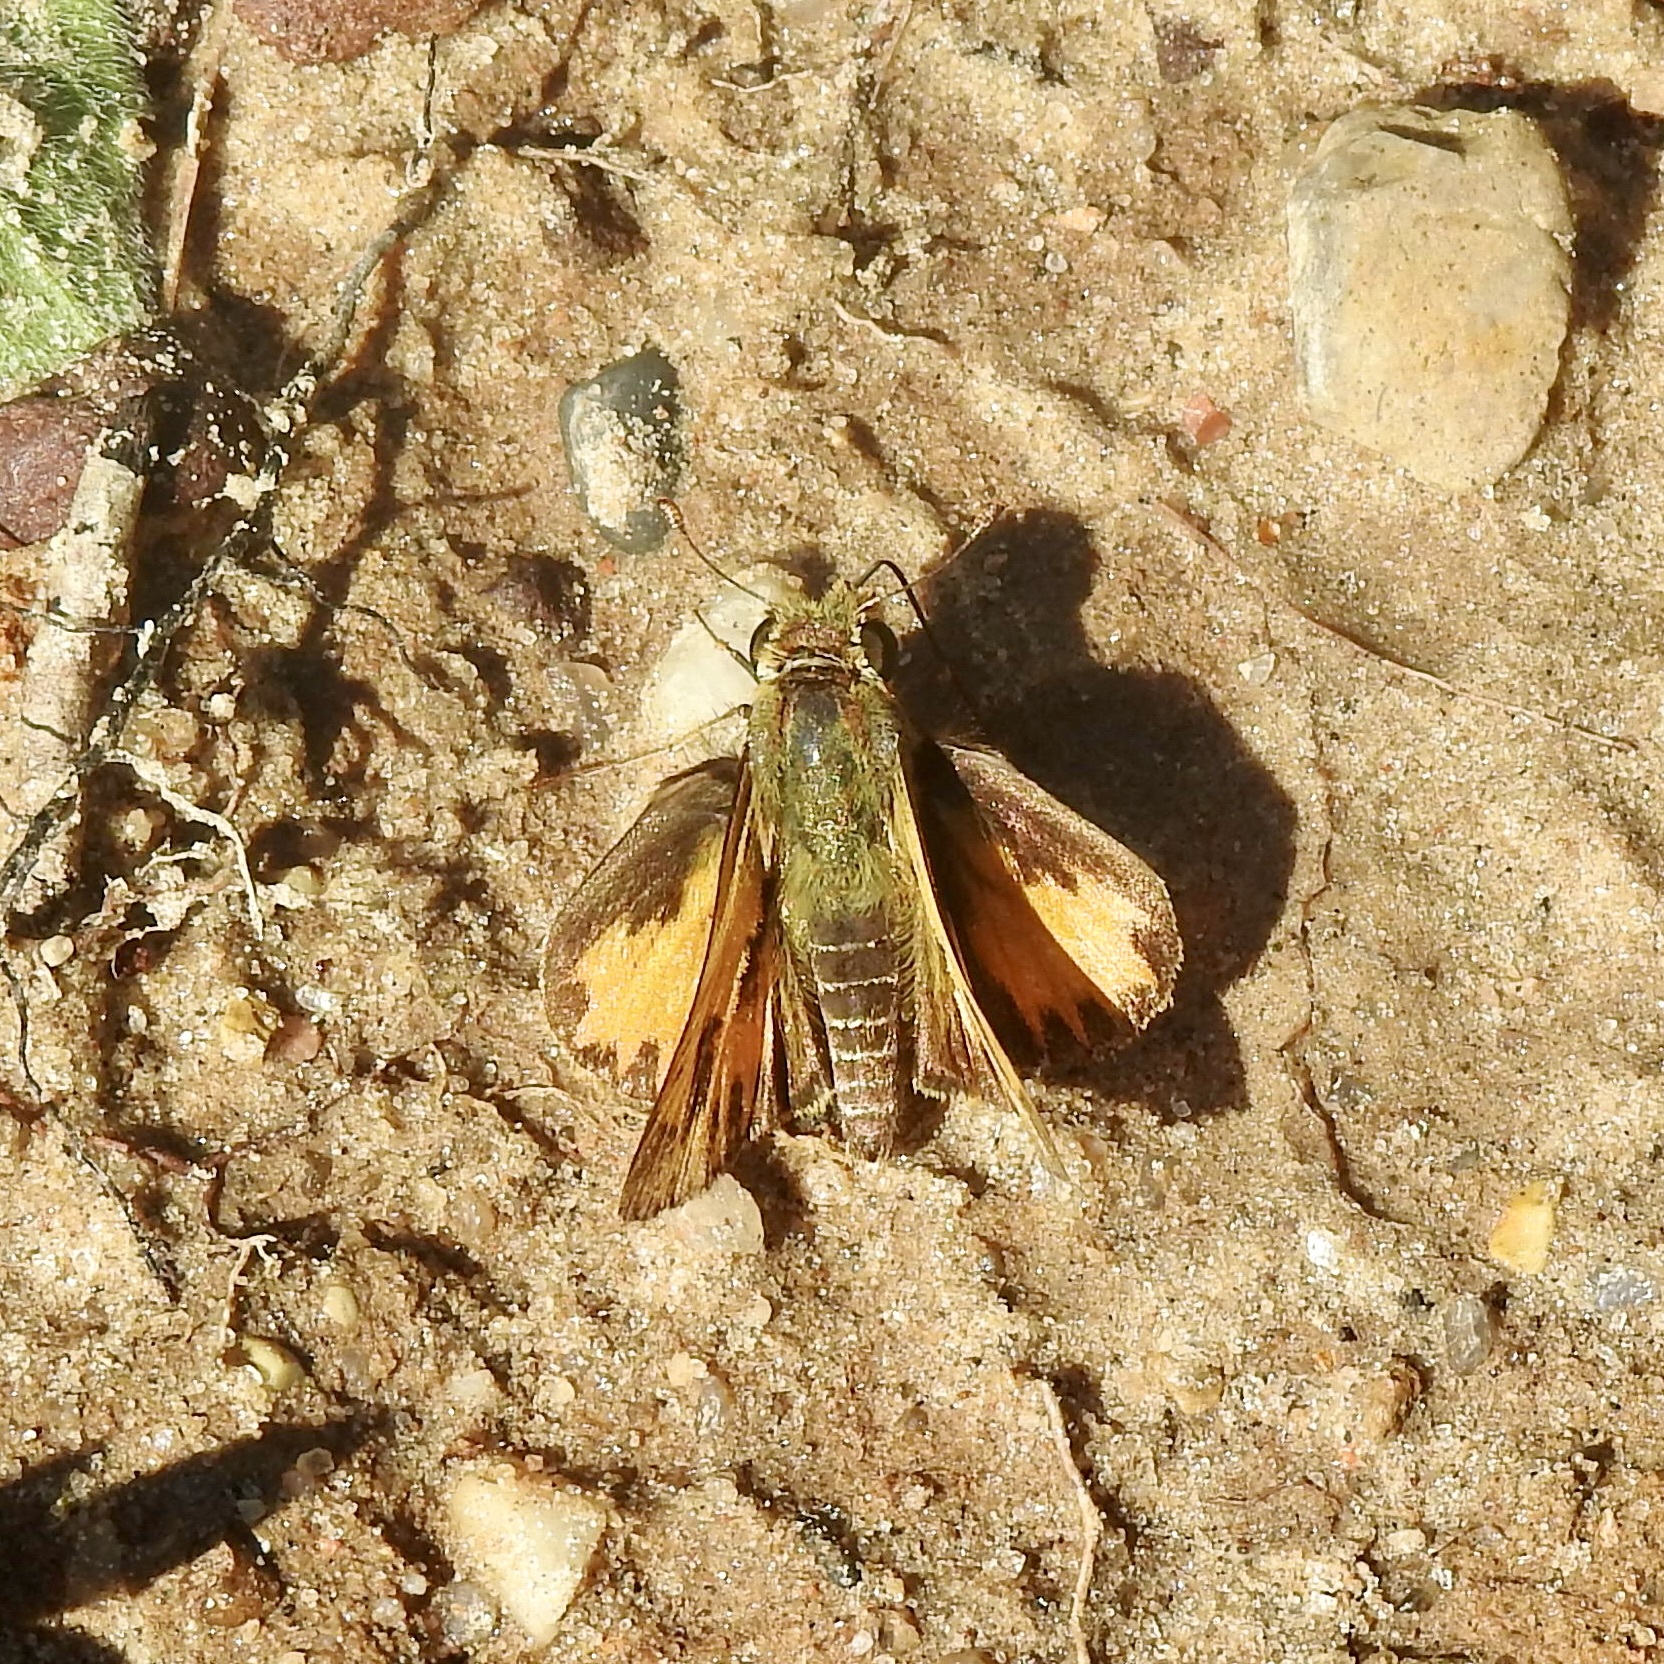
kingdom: Animalia
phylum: Arthropoda
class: Insecta
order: Lepidoptera
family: Hesperiidae
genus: Hylephila
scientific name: Hylephila phyleus
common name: Fiery skipper
